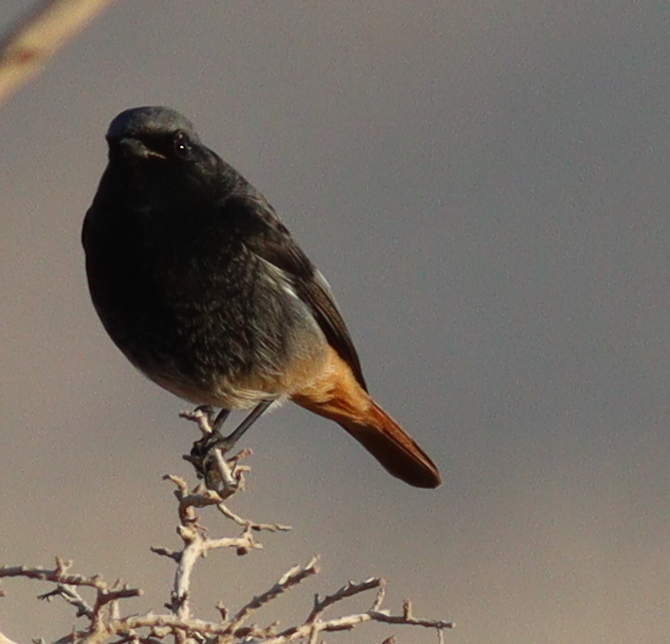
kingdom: Animalia
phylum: Chordata
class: Aves
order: Passeriformes
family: Muscicapidae
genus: Phoenicurus
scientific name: Phoenicurus ochruros
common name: Black redstart
